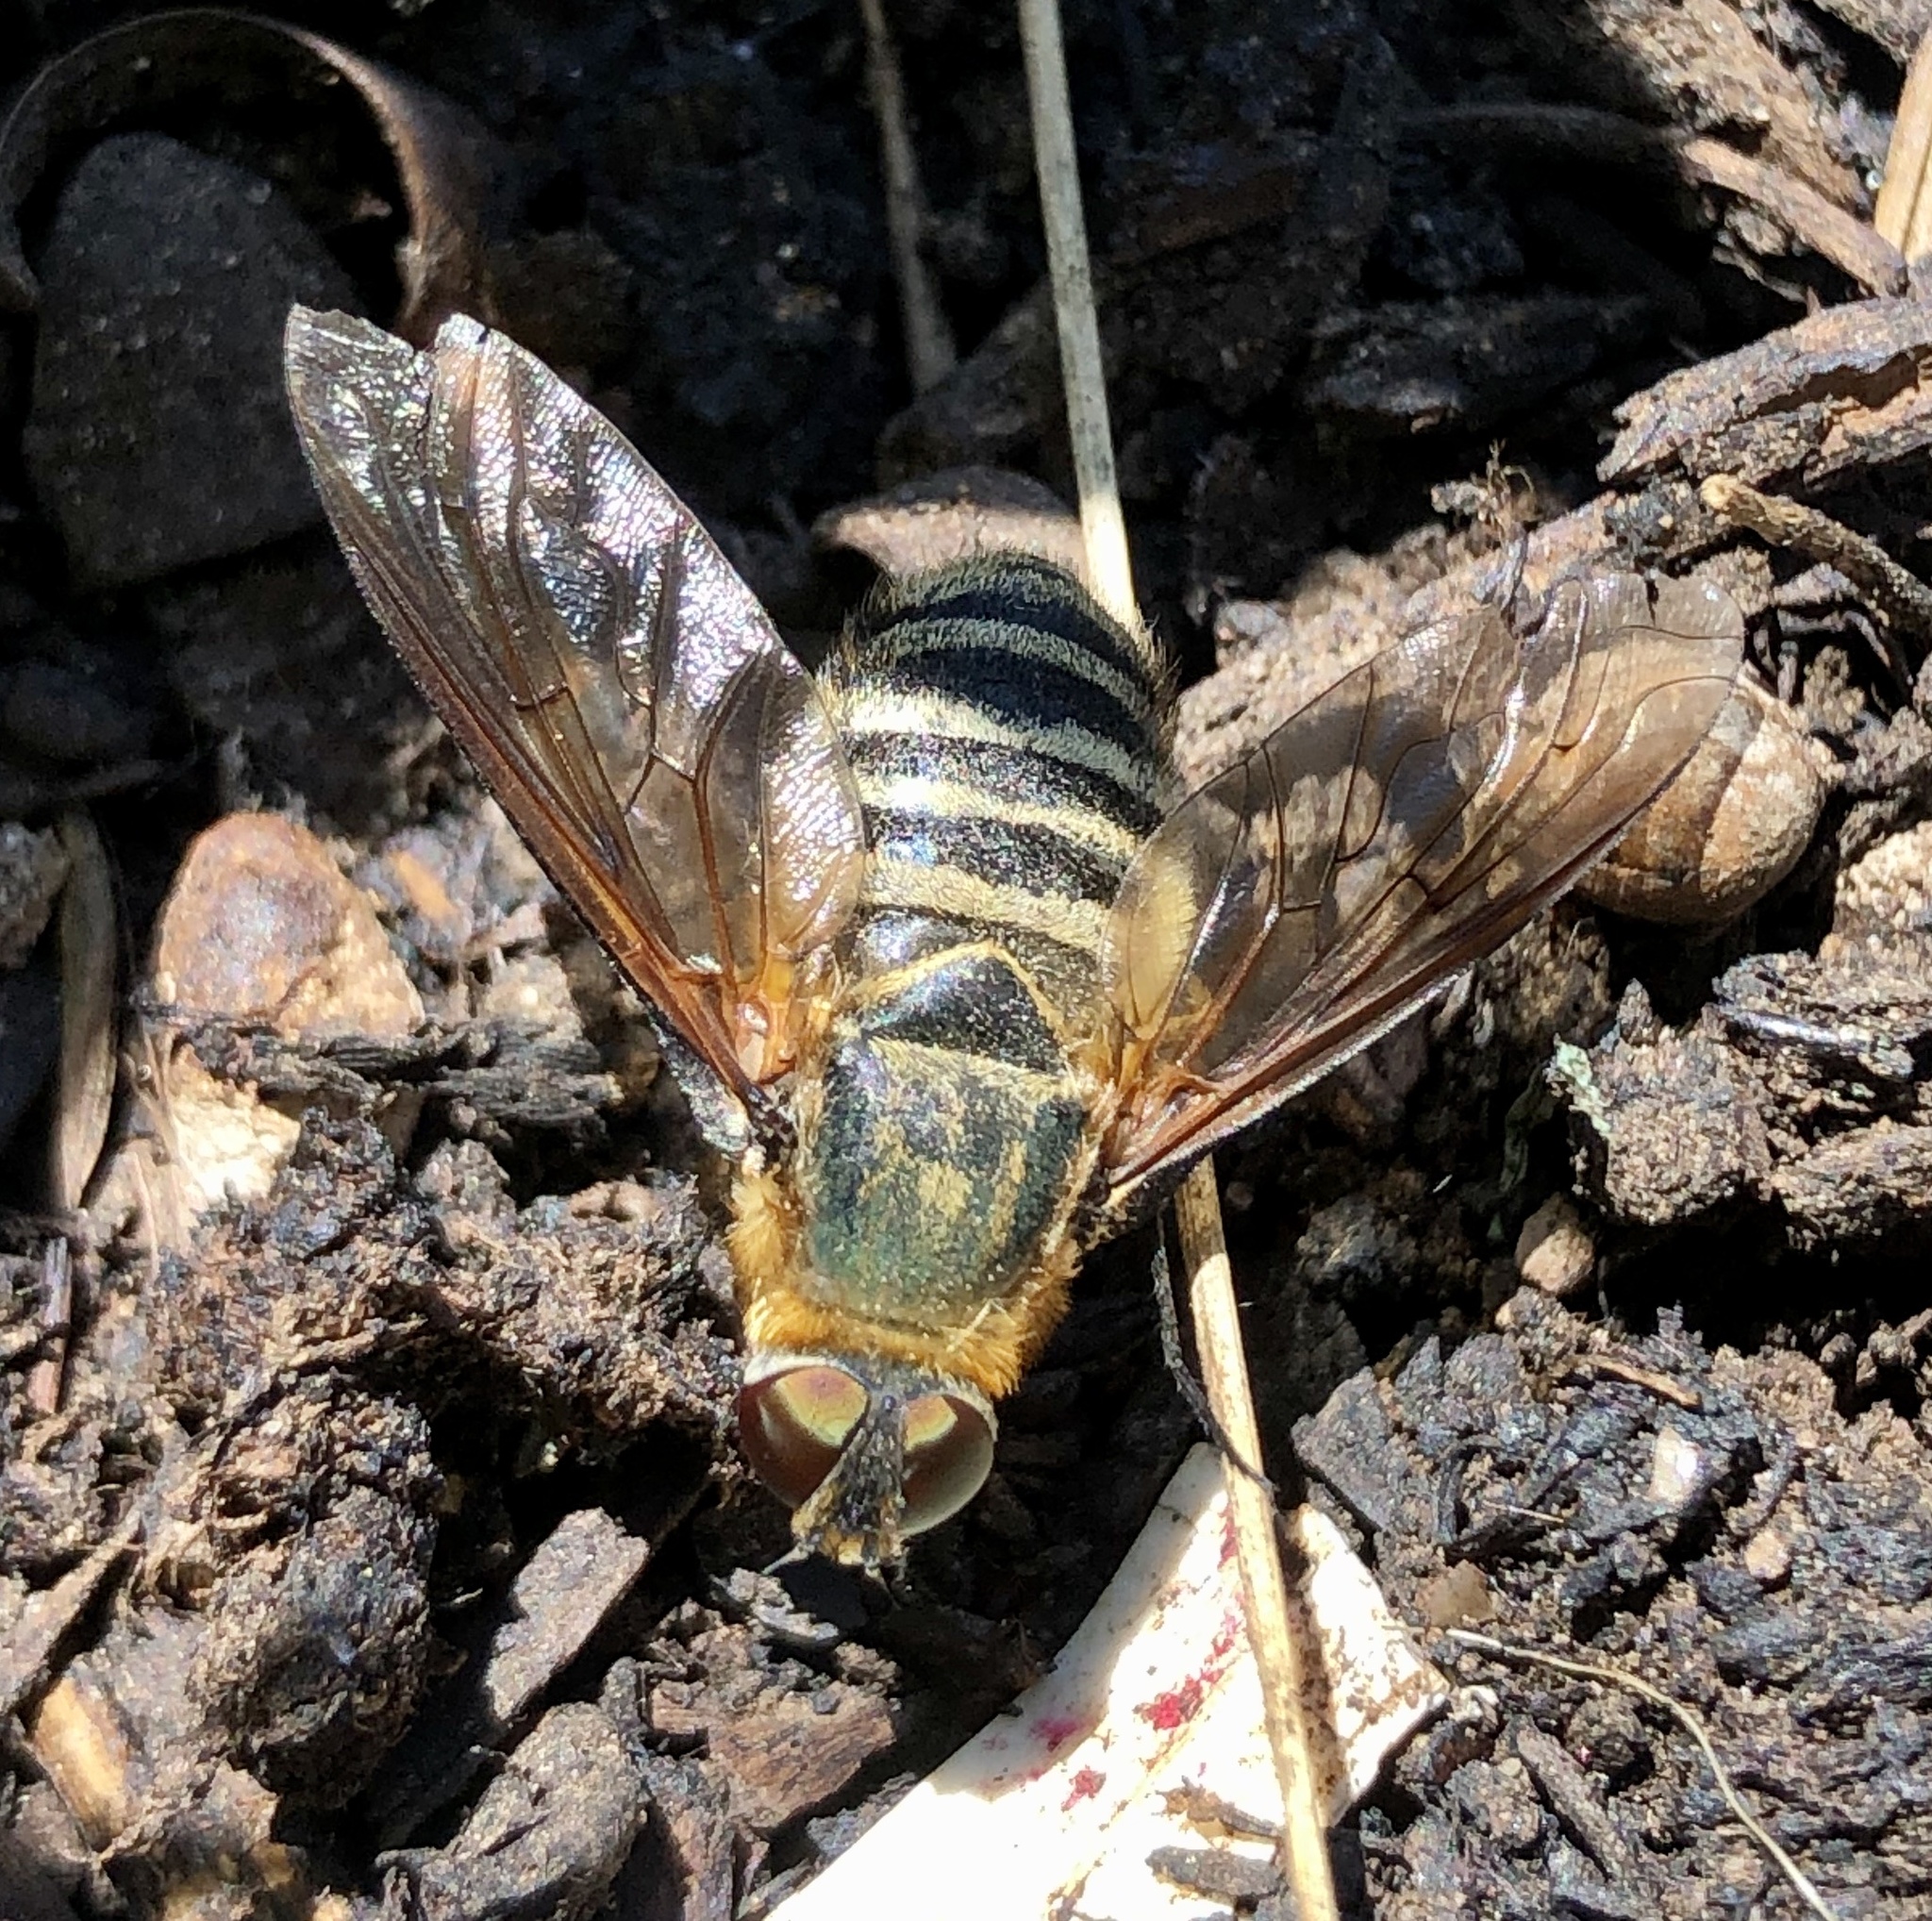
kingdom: Animalia
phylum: Arthropoda
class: Insecta
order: Diptera
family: Bombyliidae
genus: Villa
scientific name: Villa brunnea
